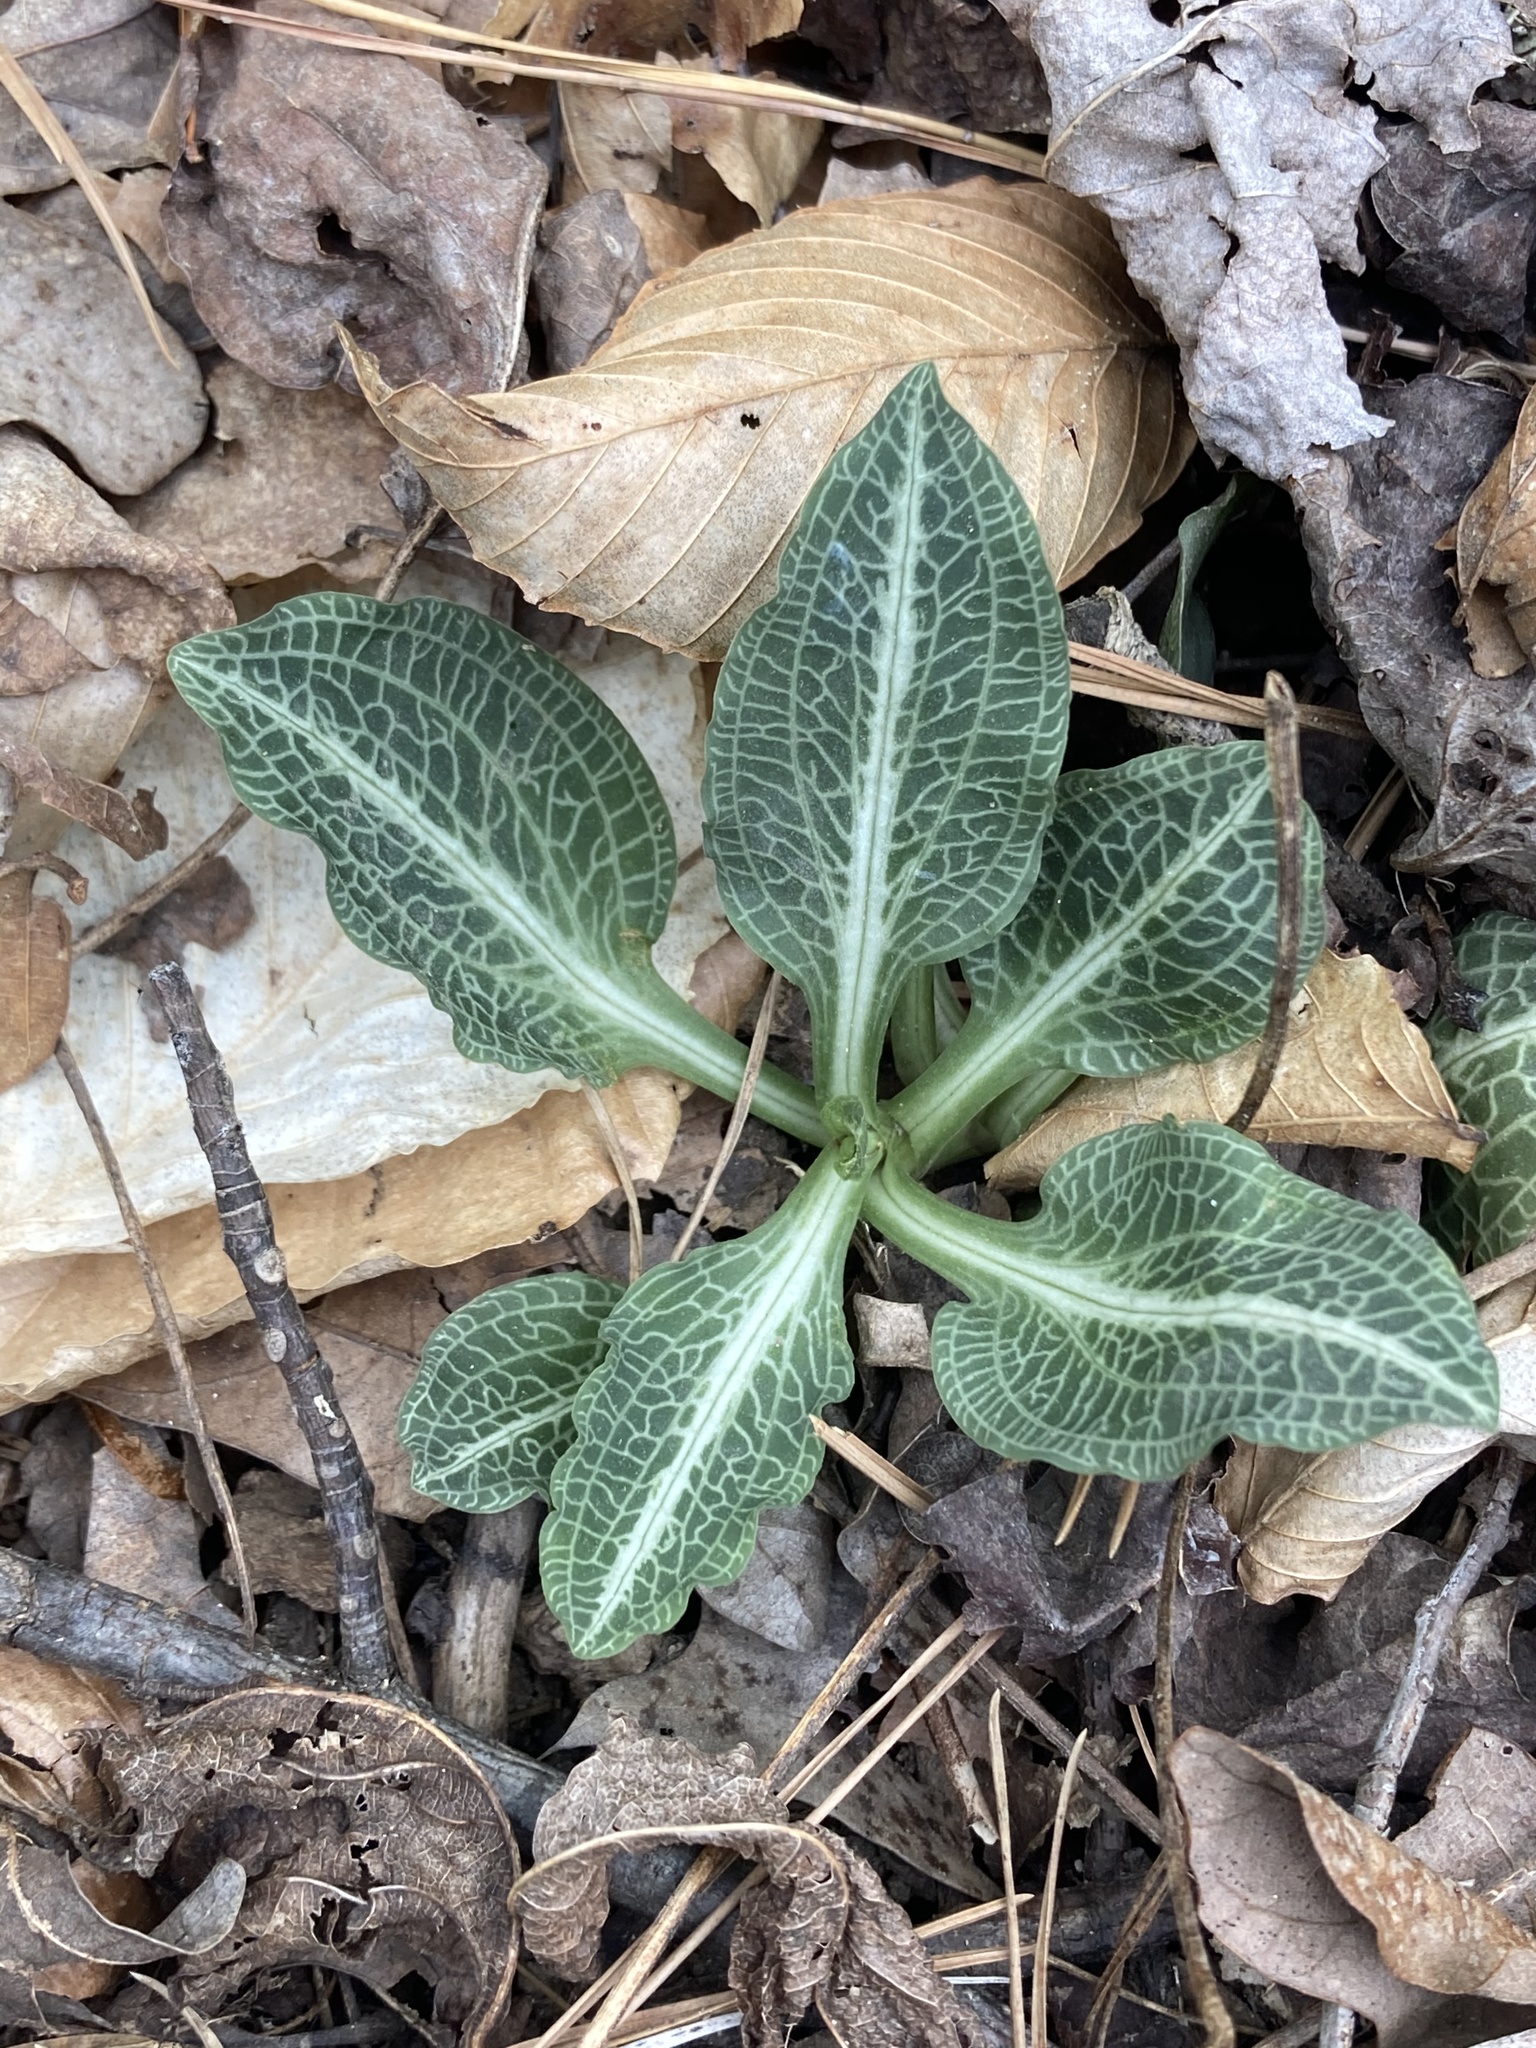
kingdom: Plantae
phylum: Tracheophyta
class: Liliopsida
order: Asparagales
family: Orchidaceae
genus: Goodyera
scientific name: Goodyera pubescens
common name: Downy rattlesnake-plantain
